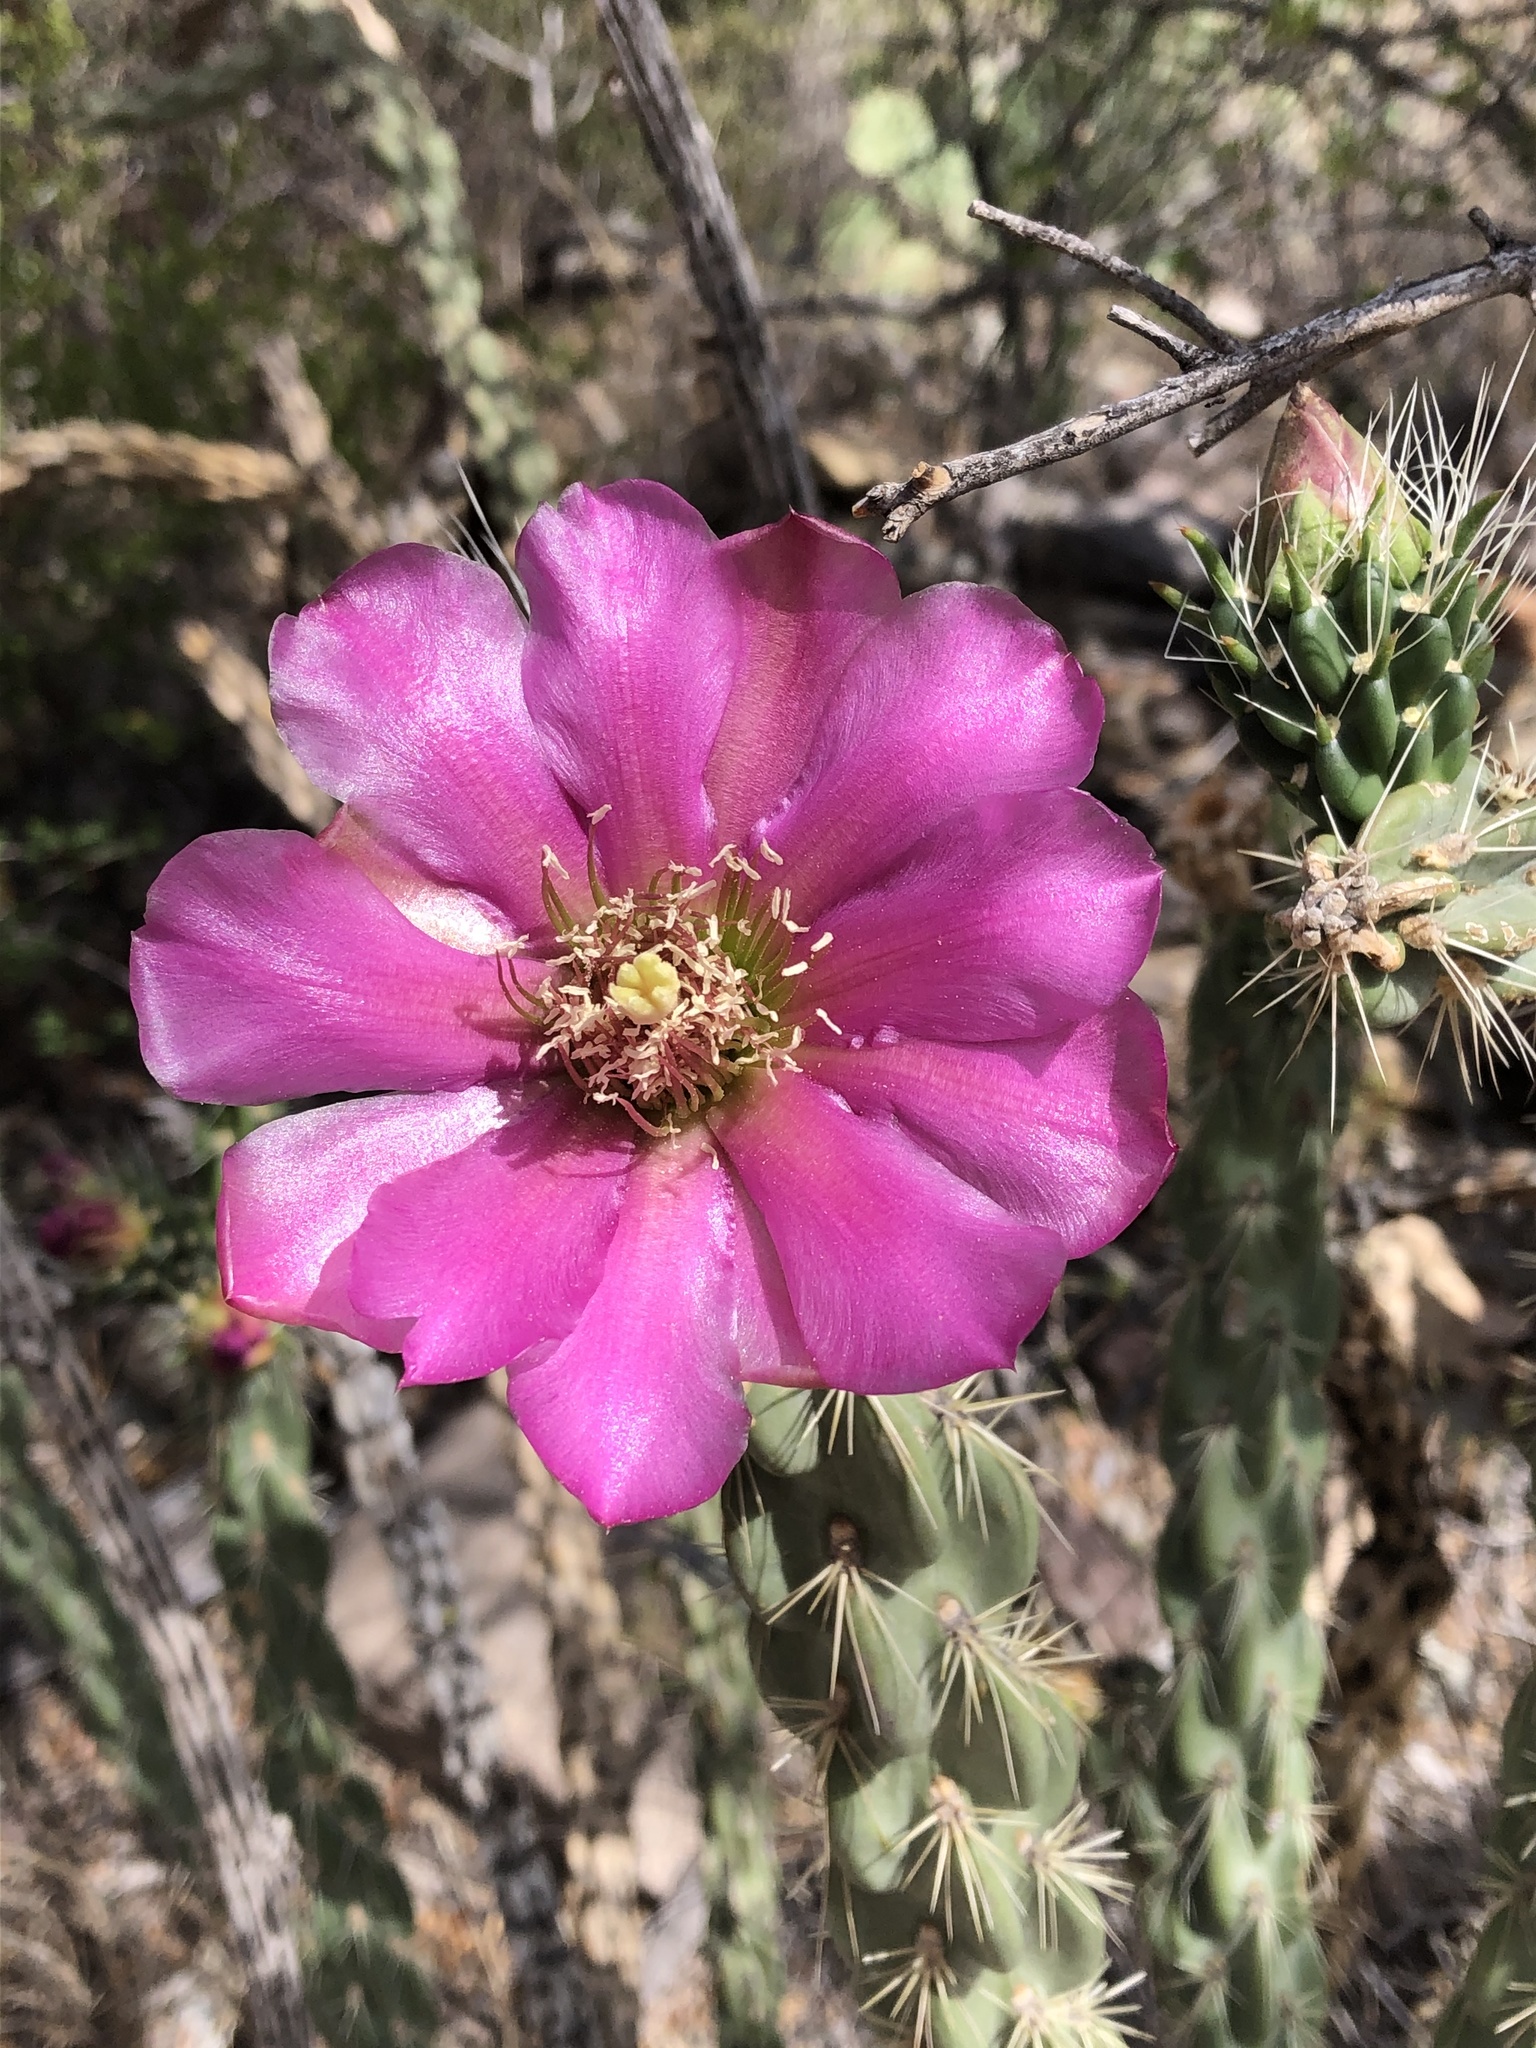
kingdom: Plantae
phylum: Tracheophyta
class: Magnoliopsida
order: Caryophyllales
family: Cactaceae
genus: Cylindropuntia
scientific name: Cylindropuntia imbricata
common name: Candelabrum cactus
